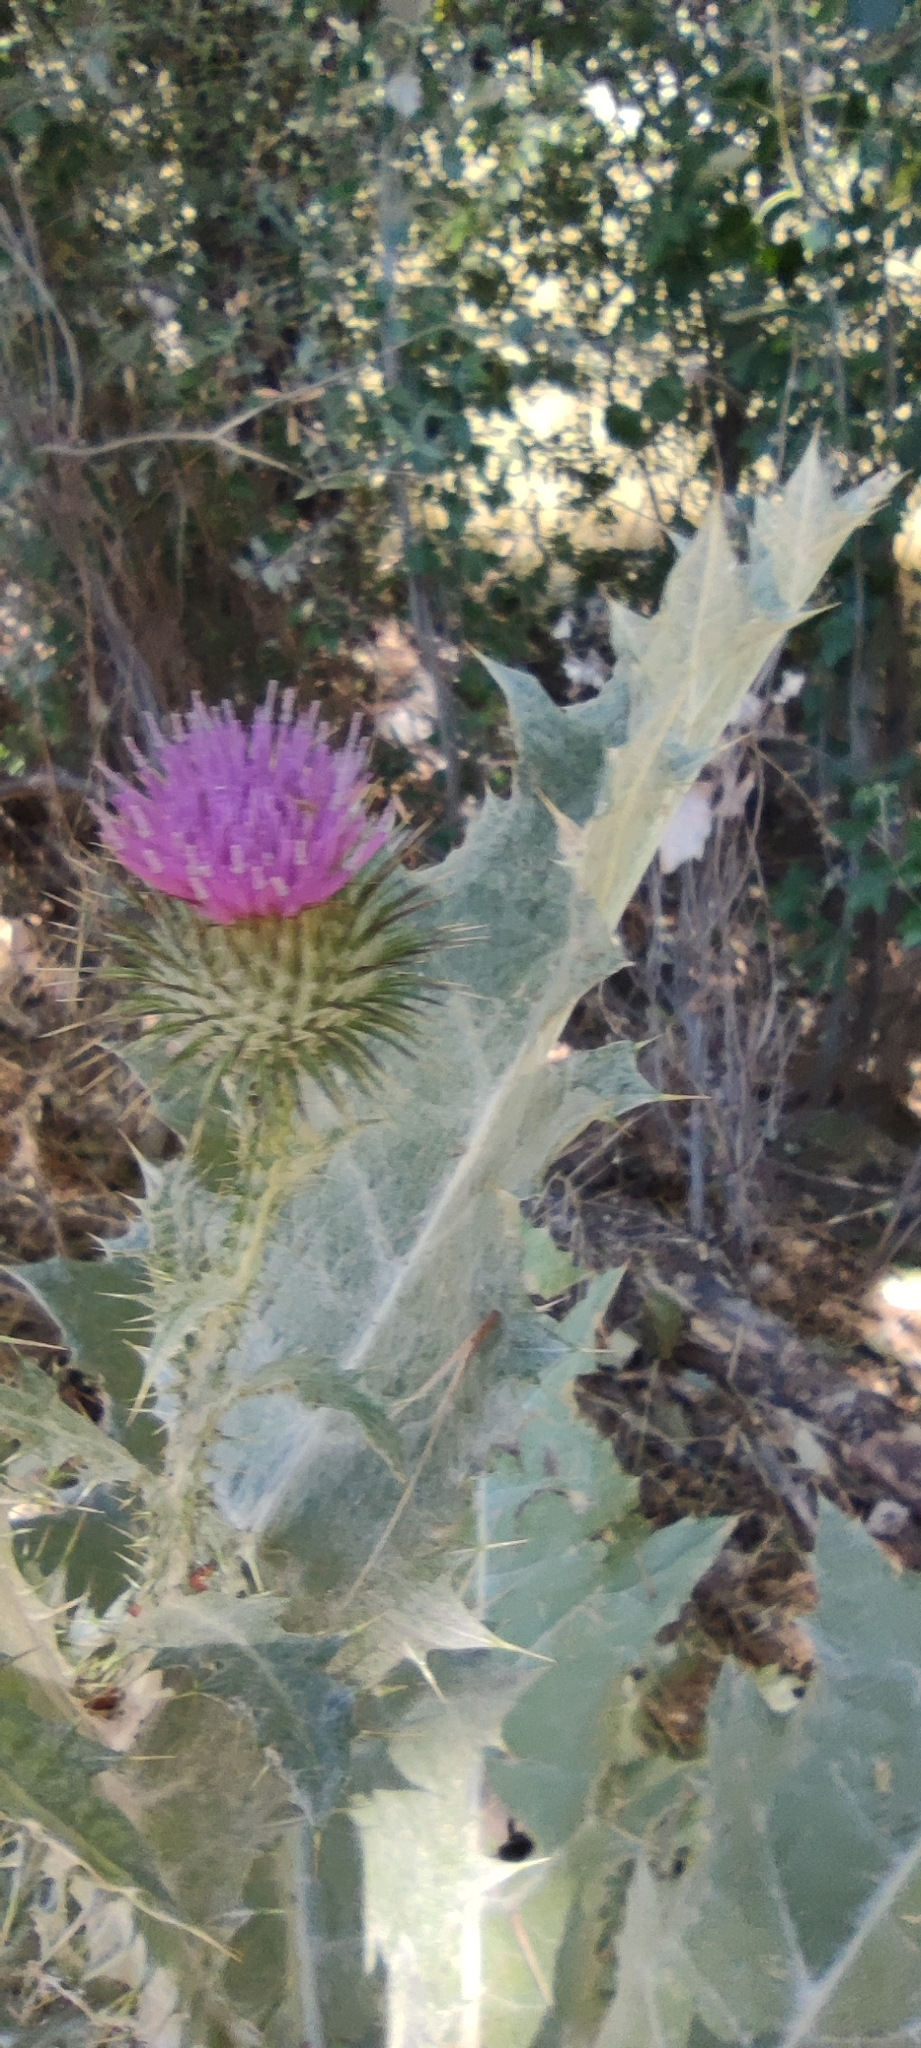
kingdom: Plantae
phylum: Tracheophyta
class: Magnoliopsida
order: Asterales
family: Asteraceae
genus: Onopordum
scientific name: Onopordum acanthium
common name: Scotch thistle
